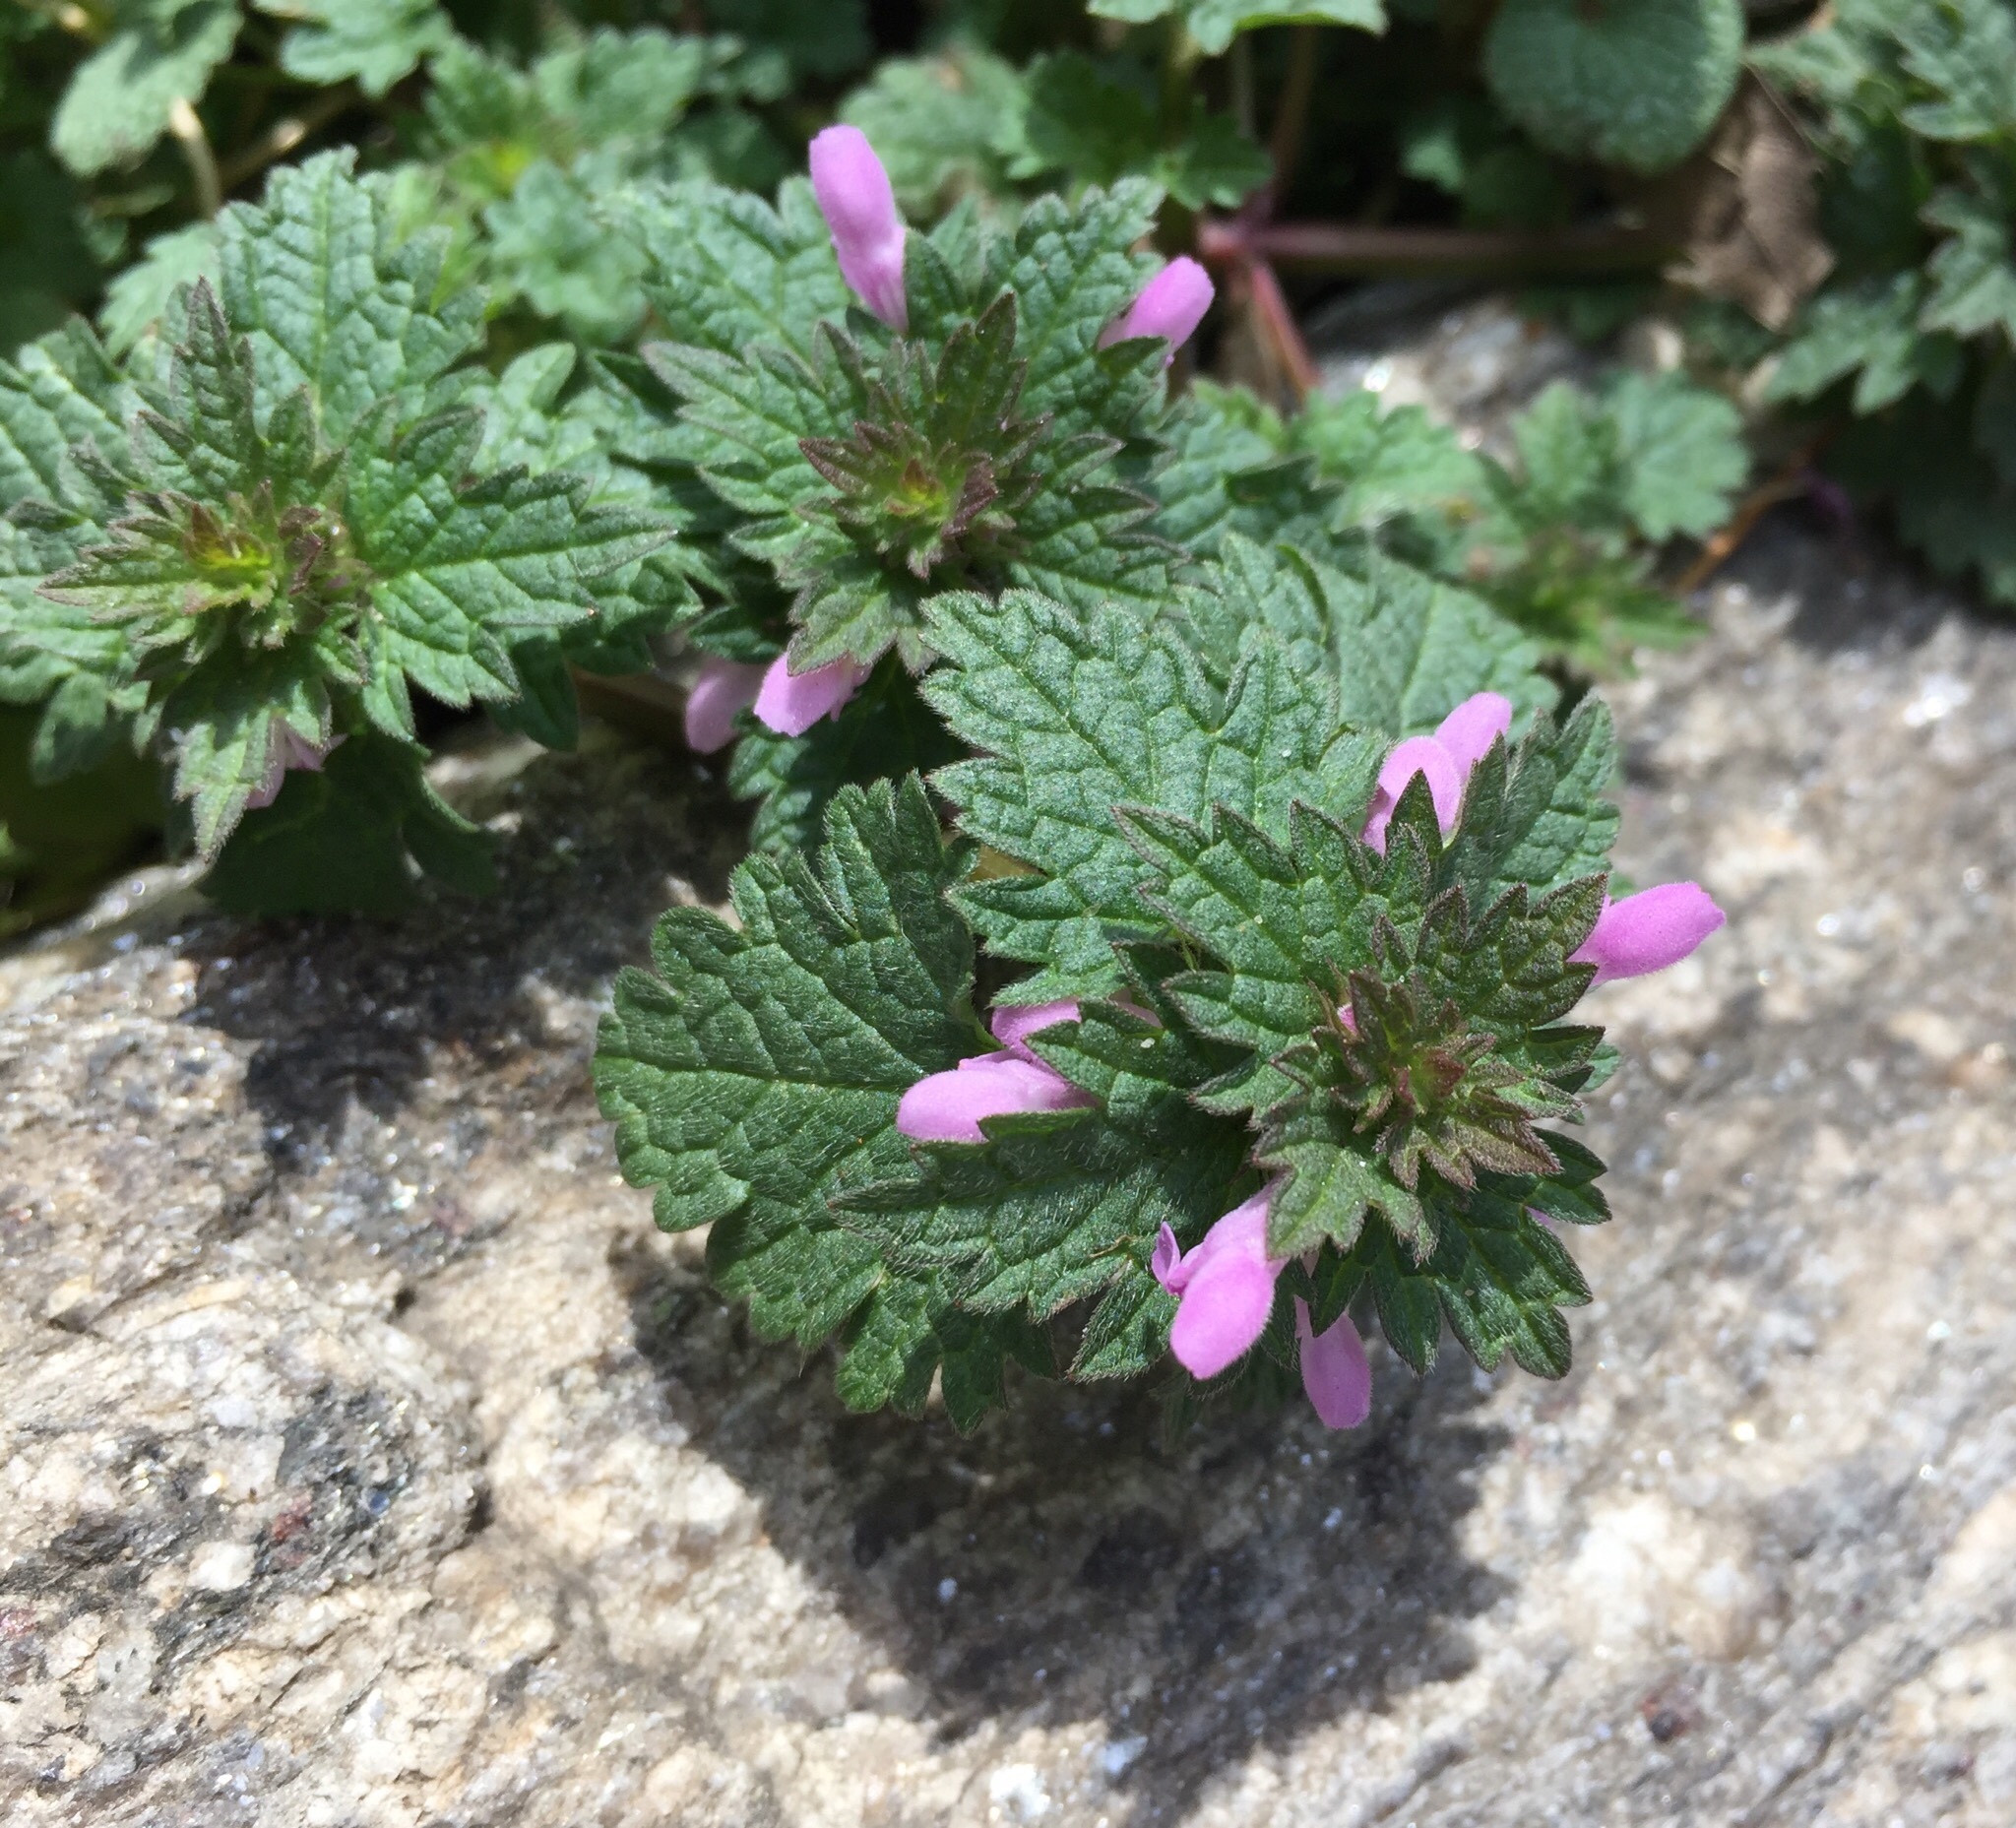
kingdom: Plantae
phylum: Tracheophyta
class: Magnoliopsida
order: Lamiales
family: Lamiaceae
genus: Lamium
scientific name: Lamium hybridum
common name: Cut-leaved dead-nettle
